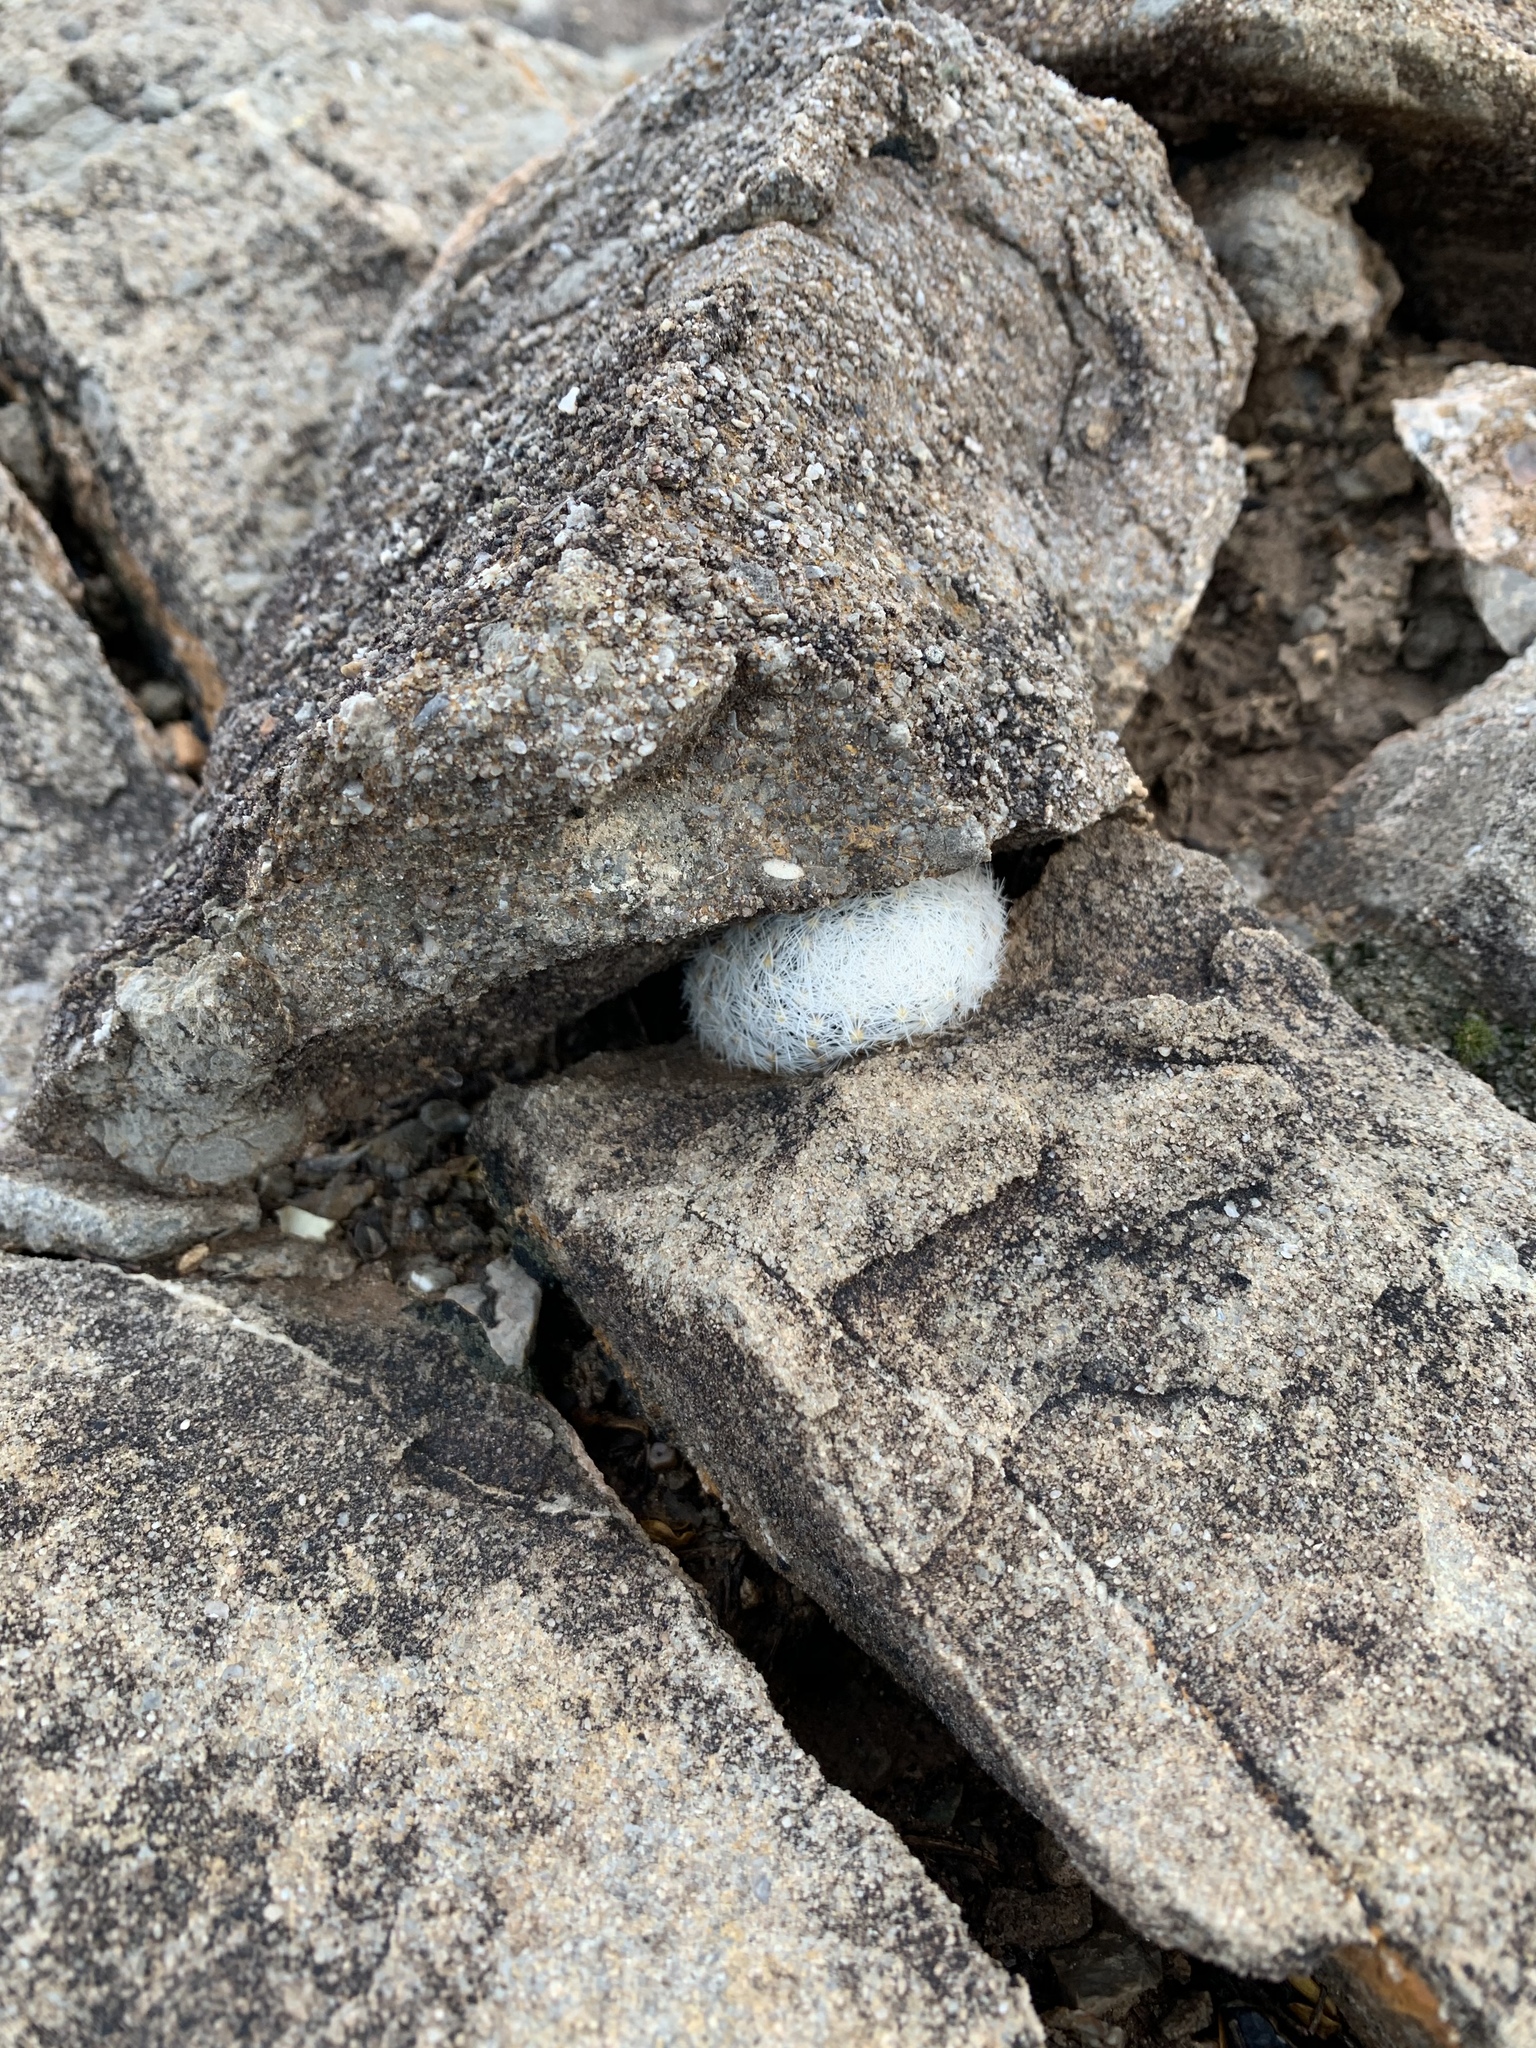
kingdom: Plantae
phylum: Tracheophyta
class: Magnoliopsida
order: Caryophyllales
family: Cactaceae
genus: Mammillaria
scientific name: Mammillaria lasiacantha
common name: Lace-spine nipple cactus
